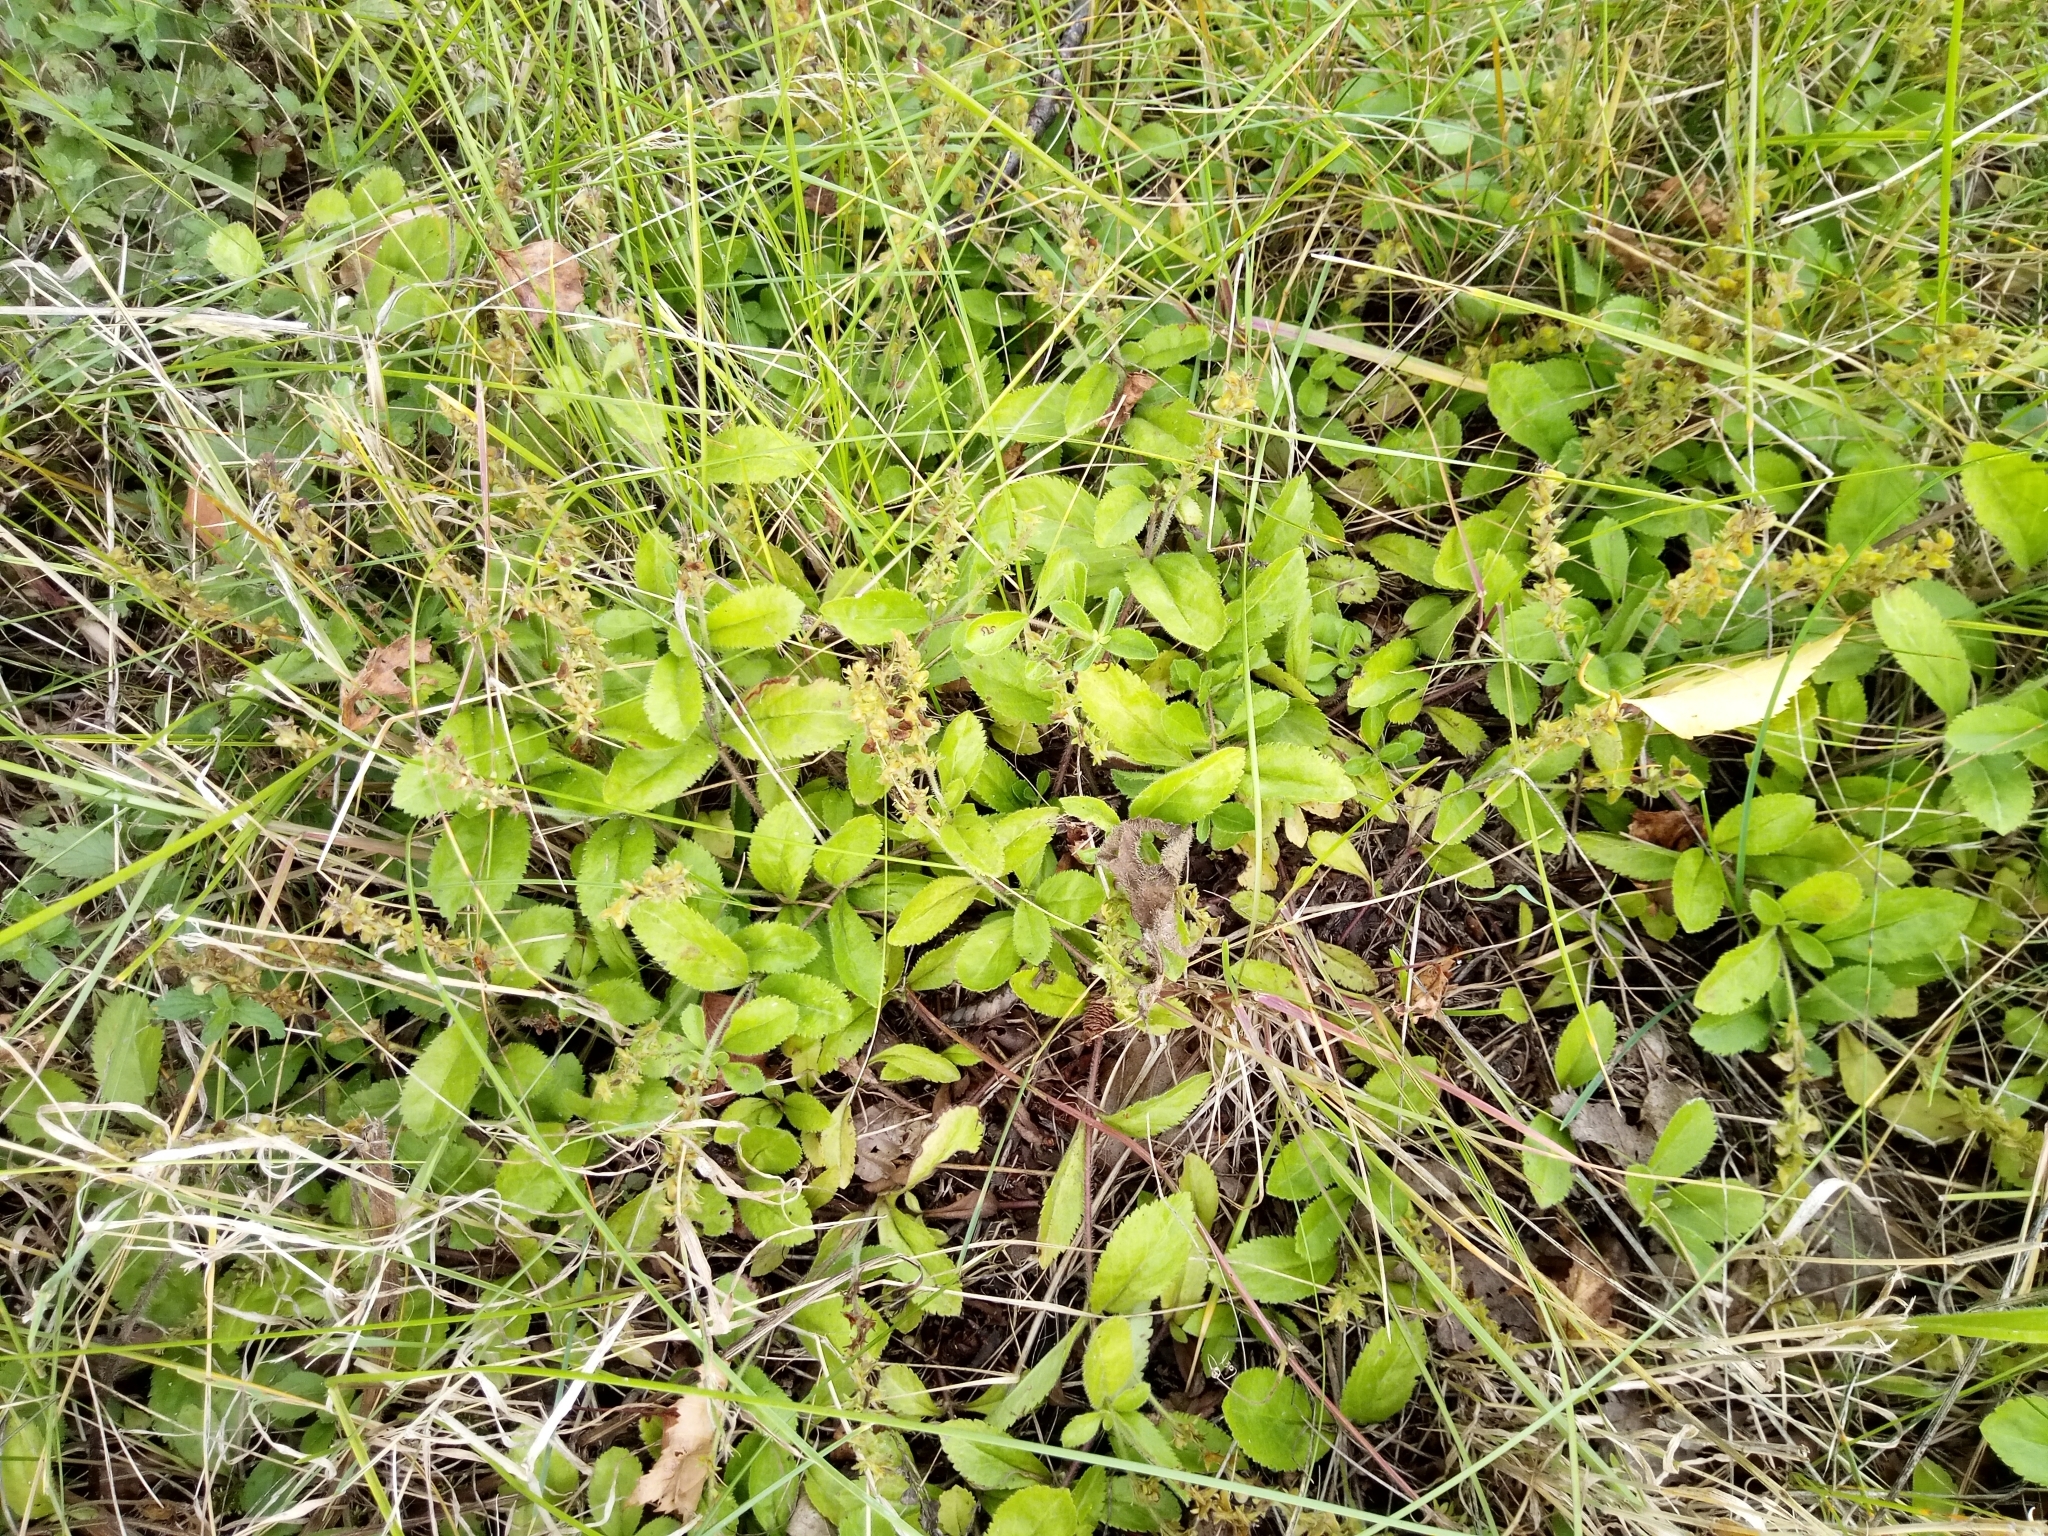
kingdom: Plantae
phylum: Tracheophyta
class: Magnoliopsida
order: Lamiales
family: Plantaginaceae
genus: Veronica
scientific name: Veronica officinalis
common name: Common speedwell
